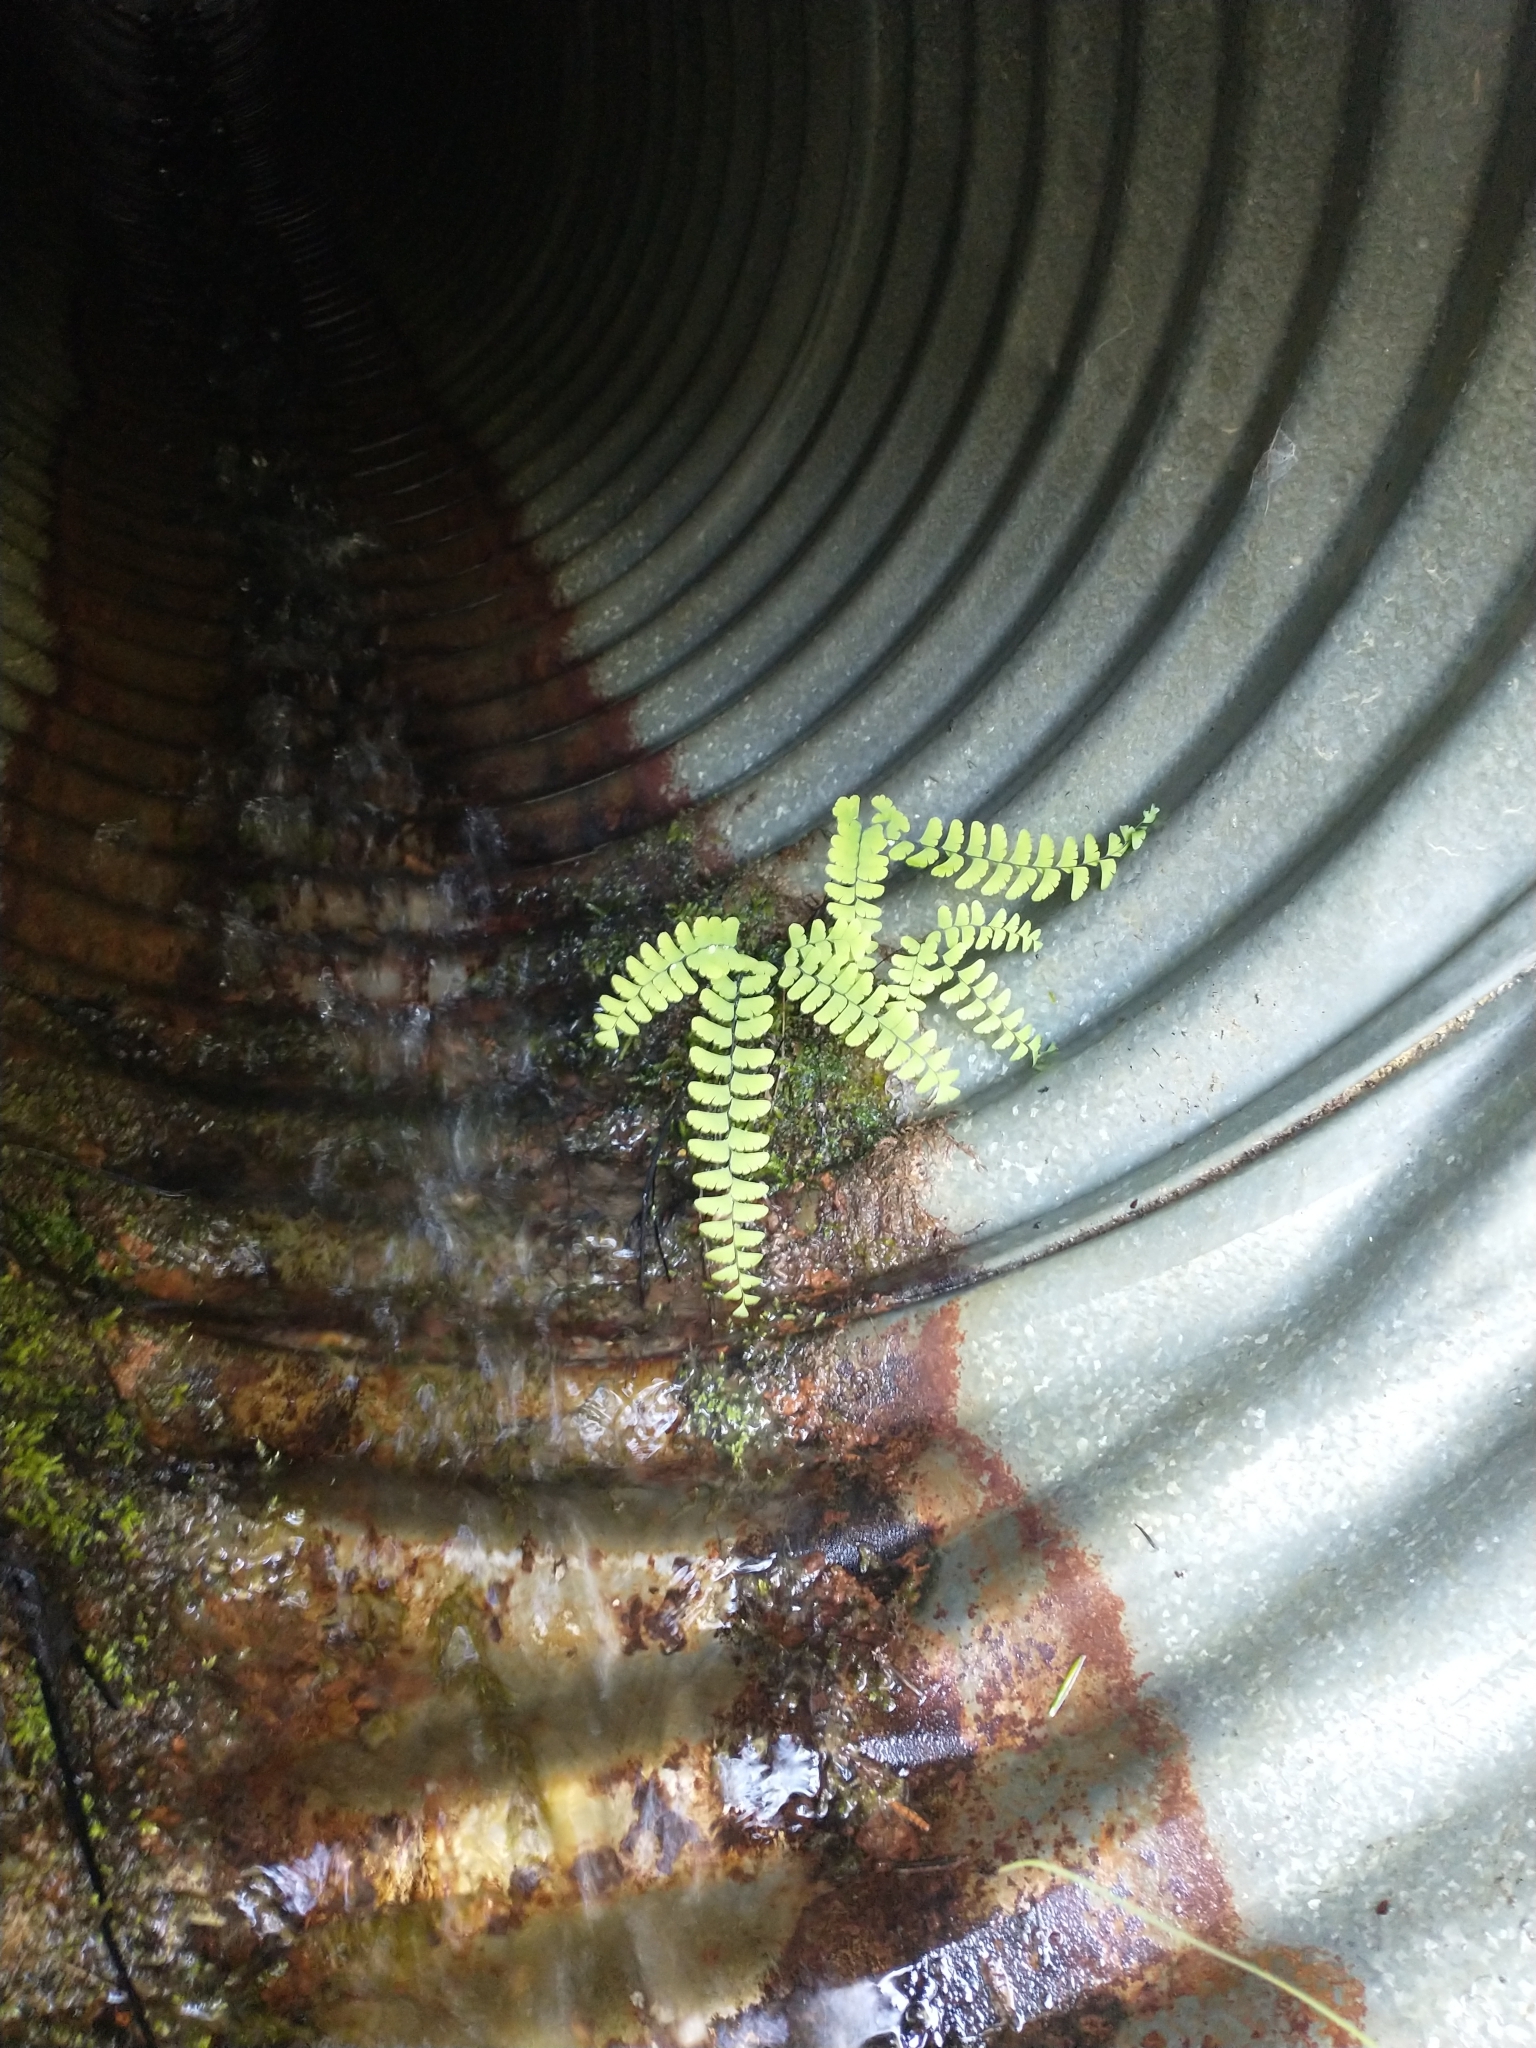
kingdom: Plantae
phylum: Tracheophyta
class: Polypodiopsida
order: Polypodiales
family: Pteridaceae
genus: Adiantum
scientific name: Adiantum aleuticum
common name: Aleutian maidenhair fern
